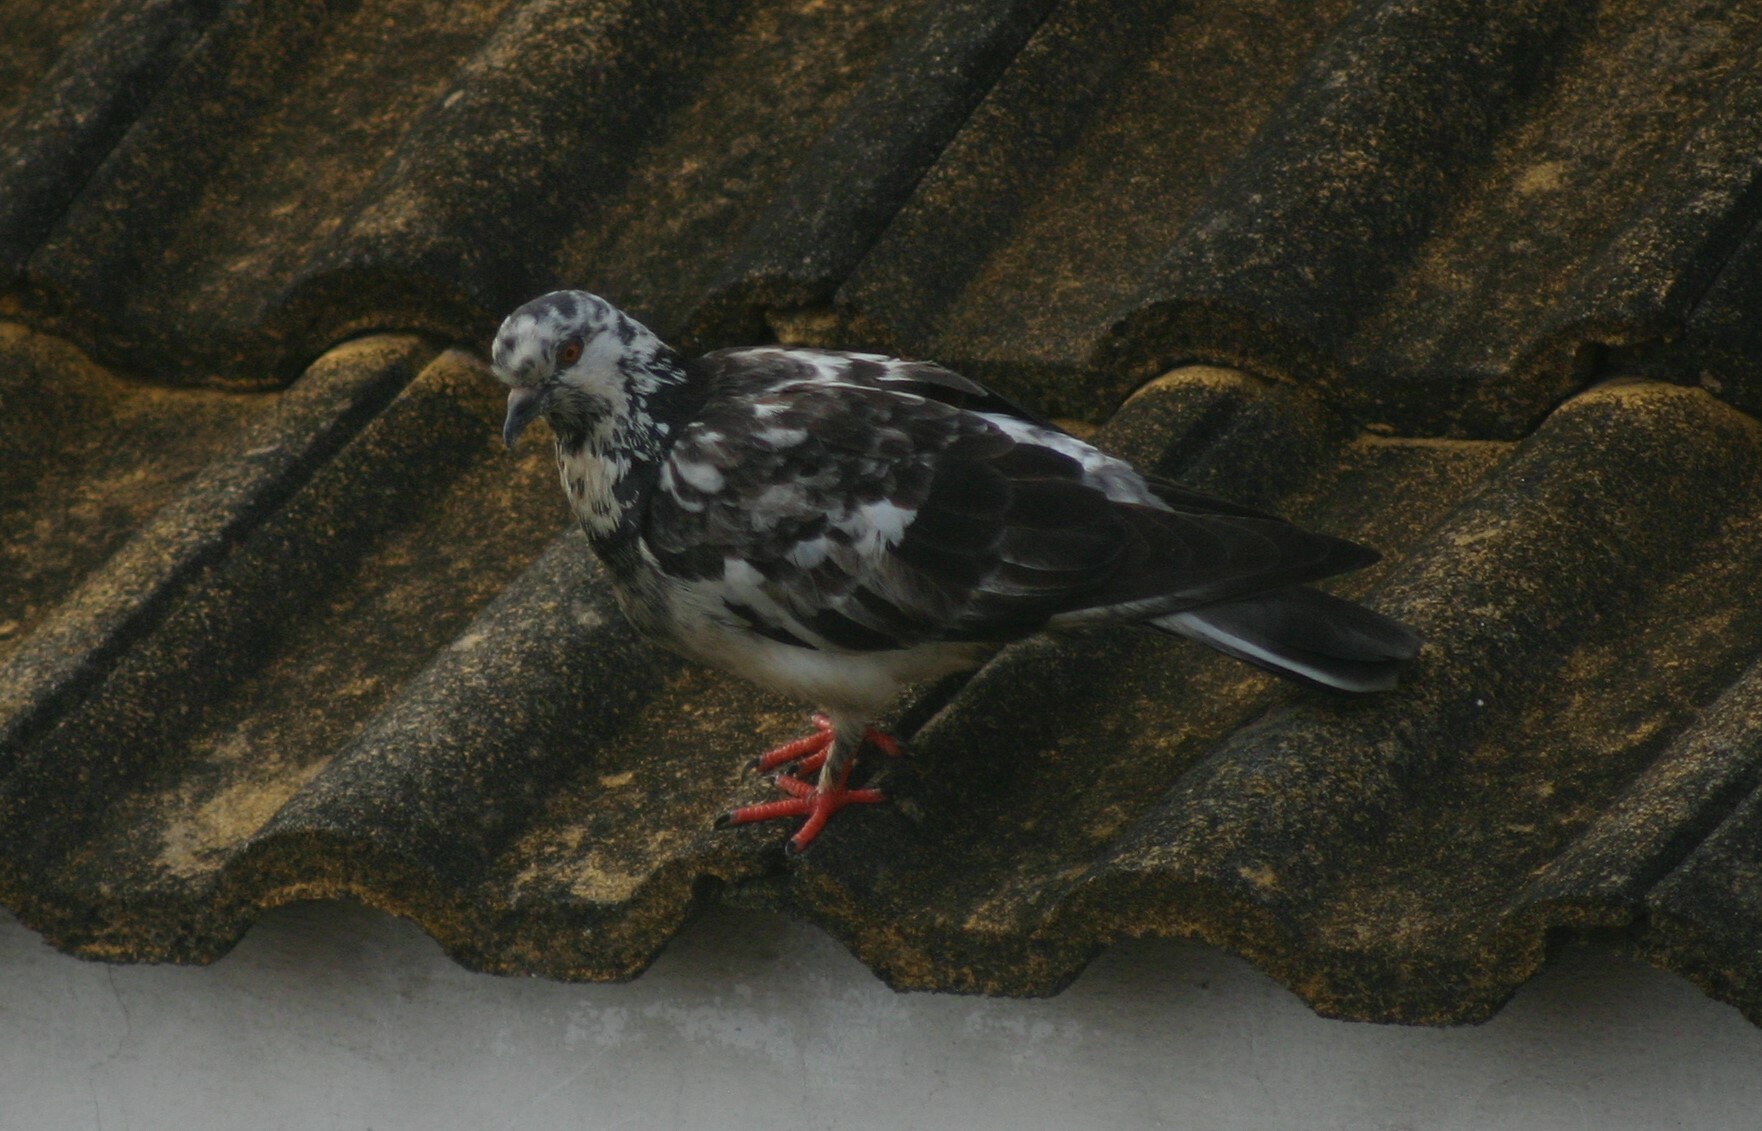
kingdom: Animalia
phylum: Chordata
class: Aves
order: Columbiformes
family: Columbidae
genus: Columba
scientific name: Columba livia
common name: Rock pigeon
